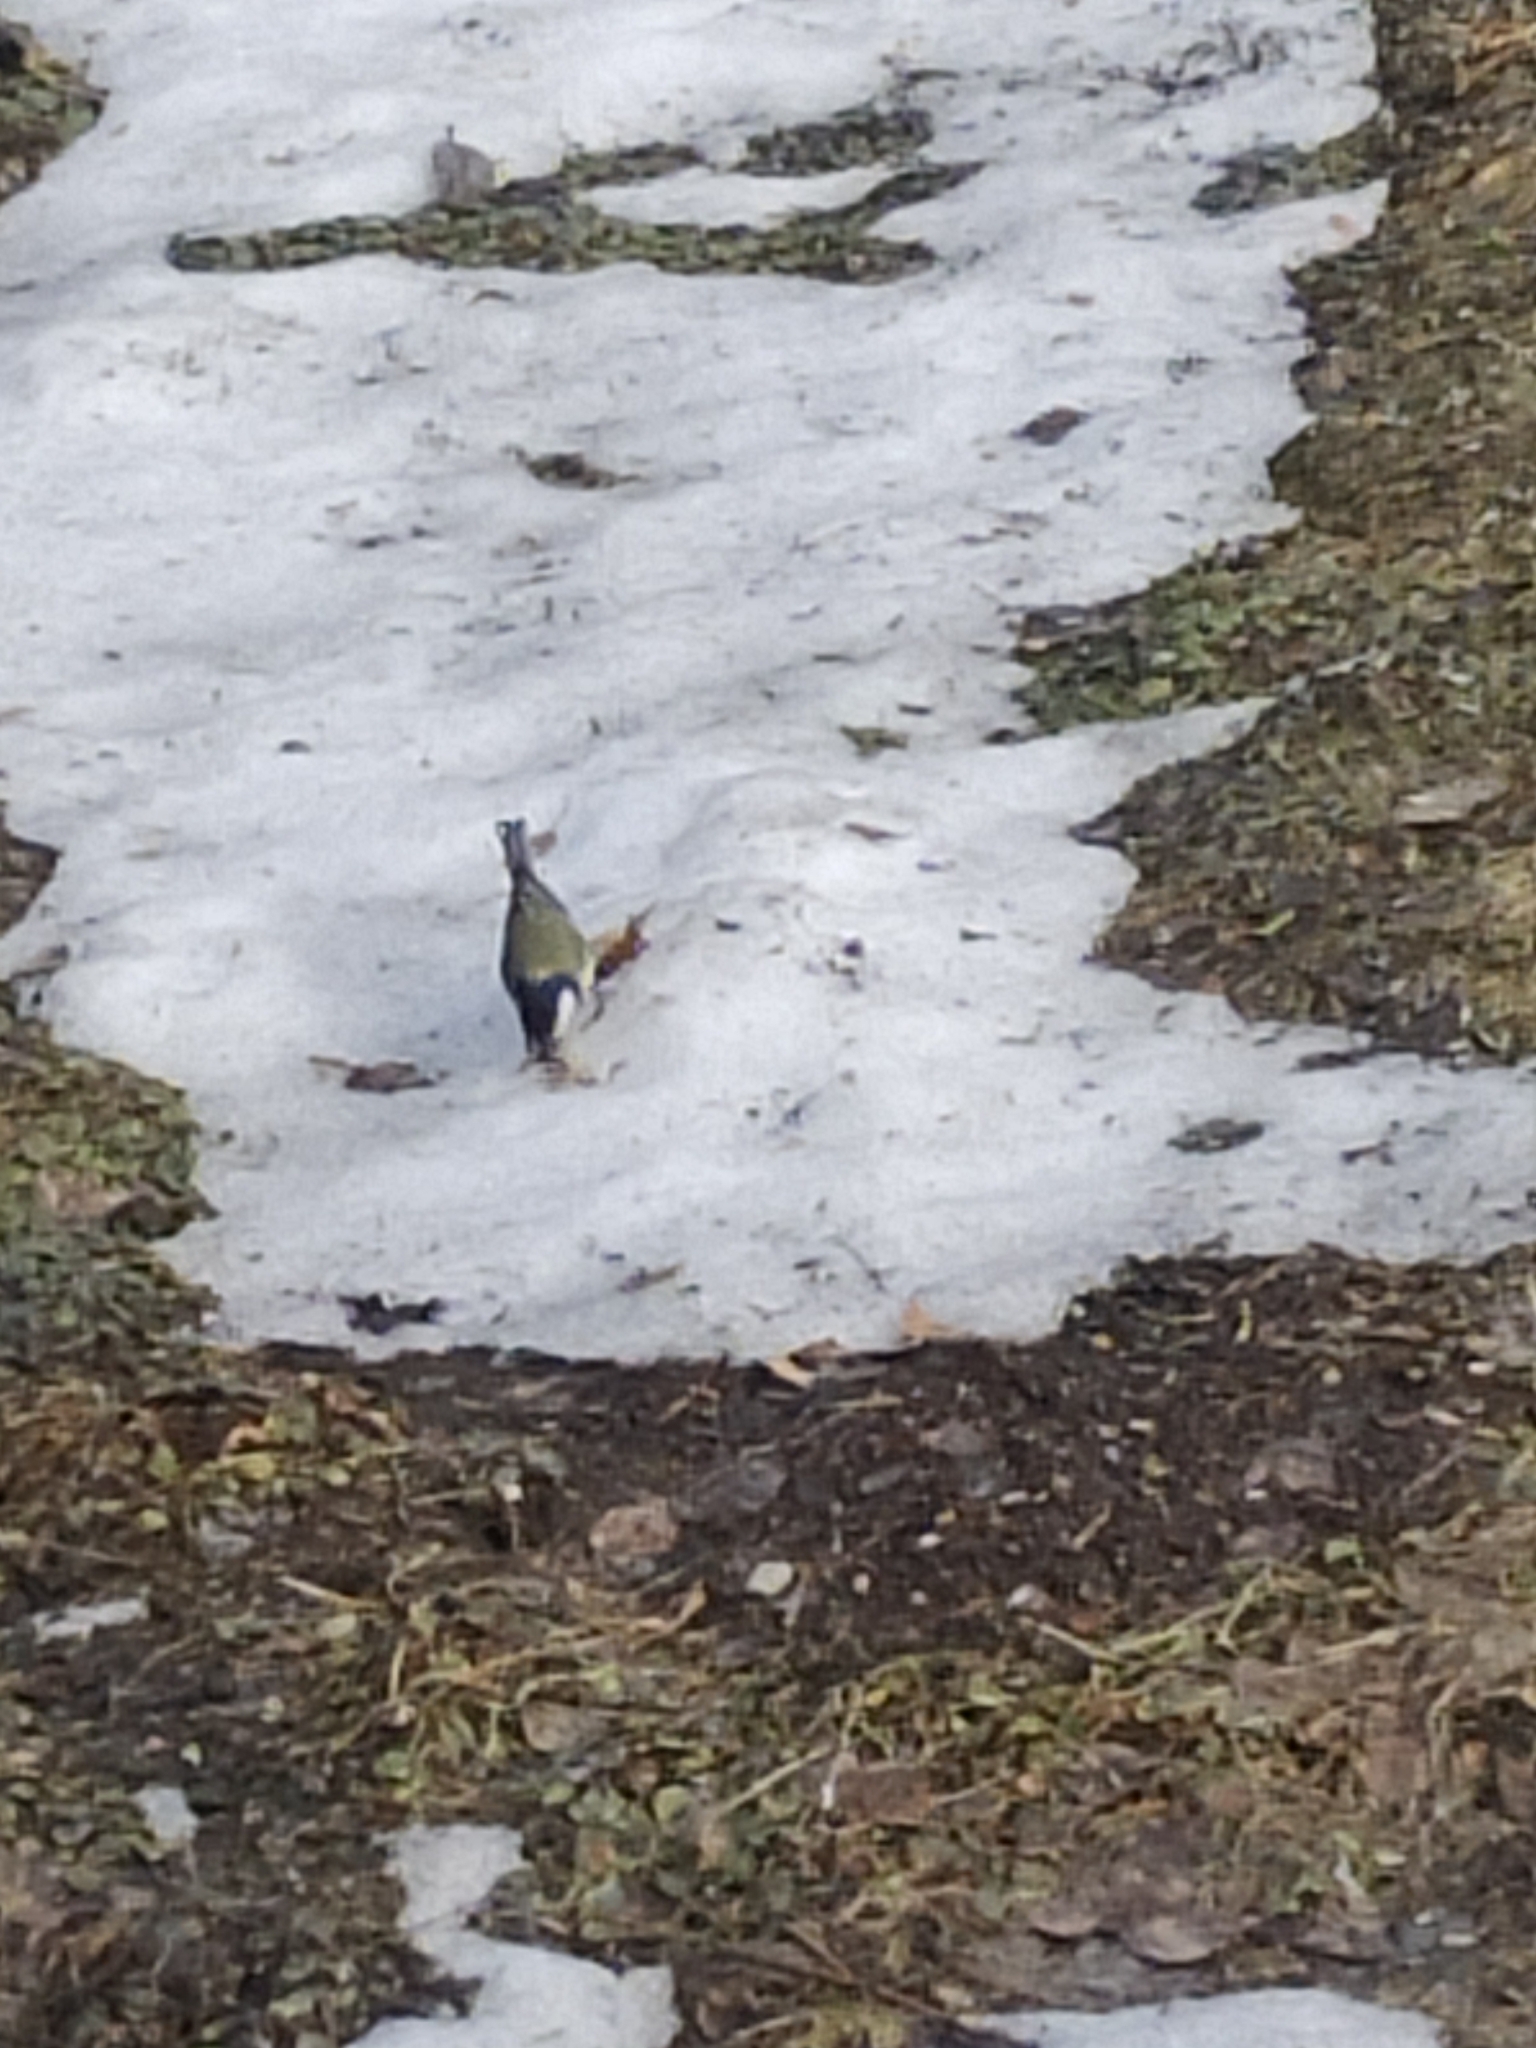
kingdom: Animalia
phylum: Chordata
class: Aves
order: Passeriformes
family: Paridae
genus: Parus
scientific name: Parus major
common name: Great tit
